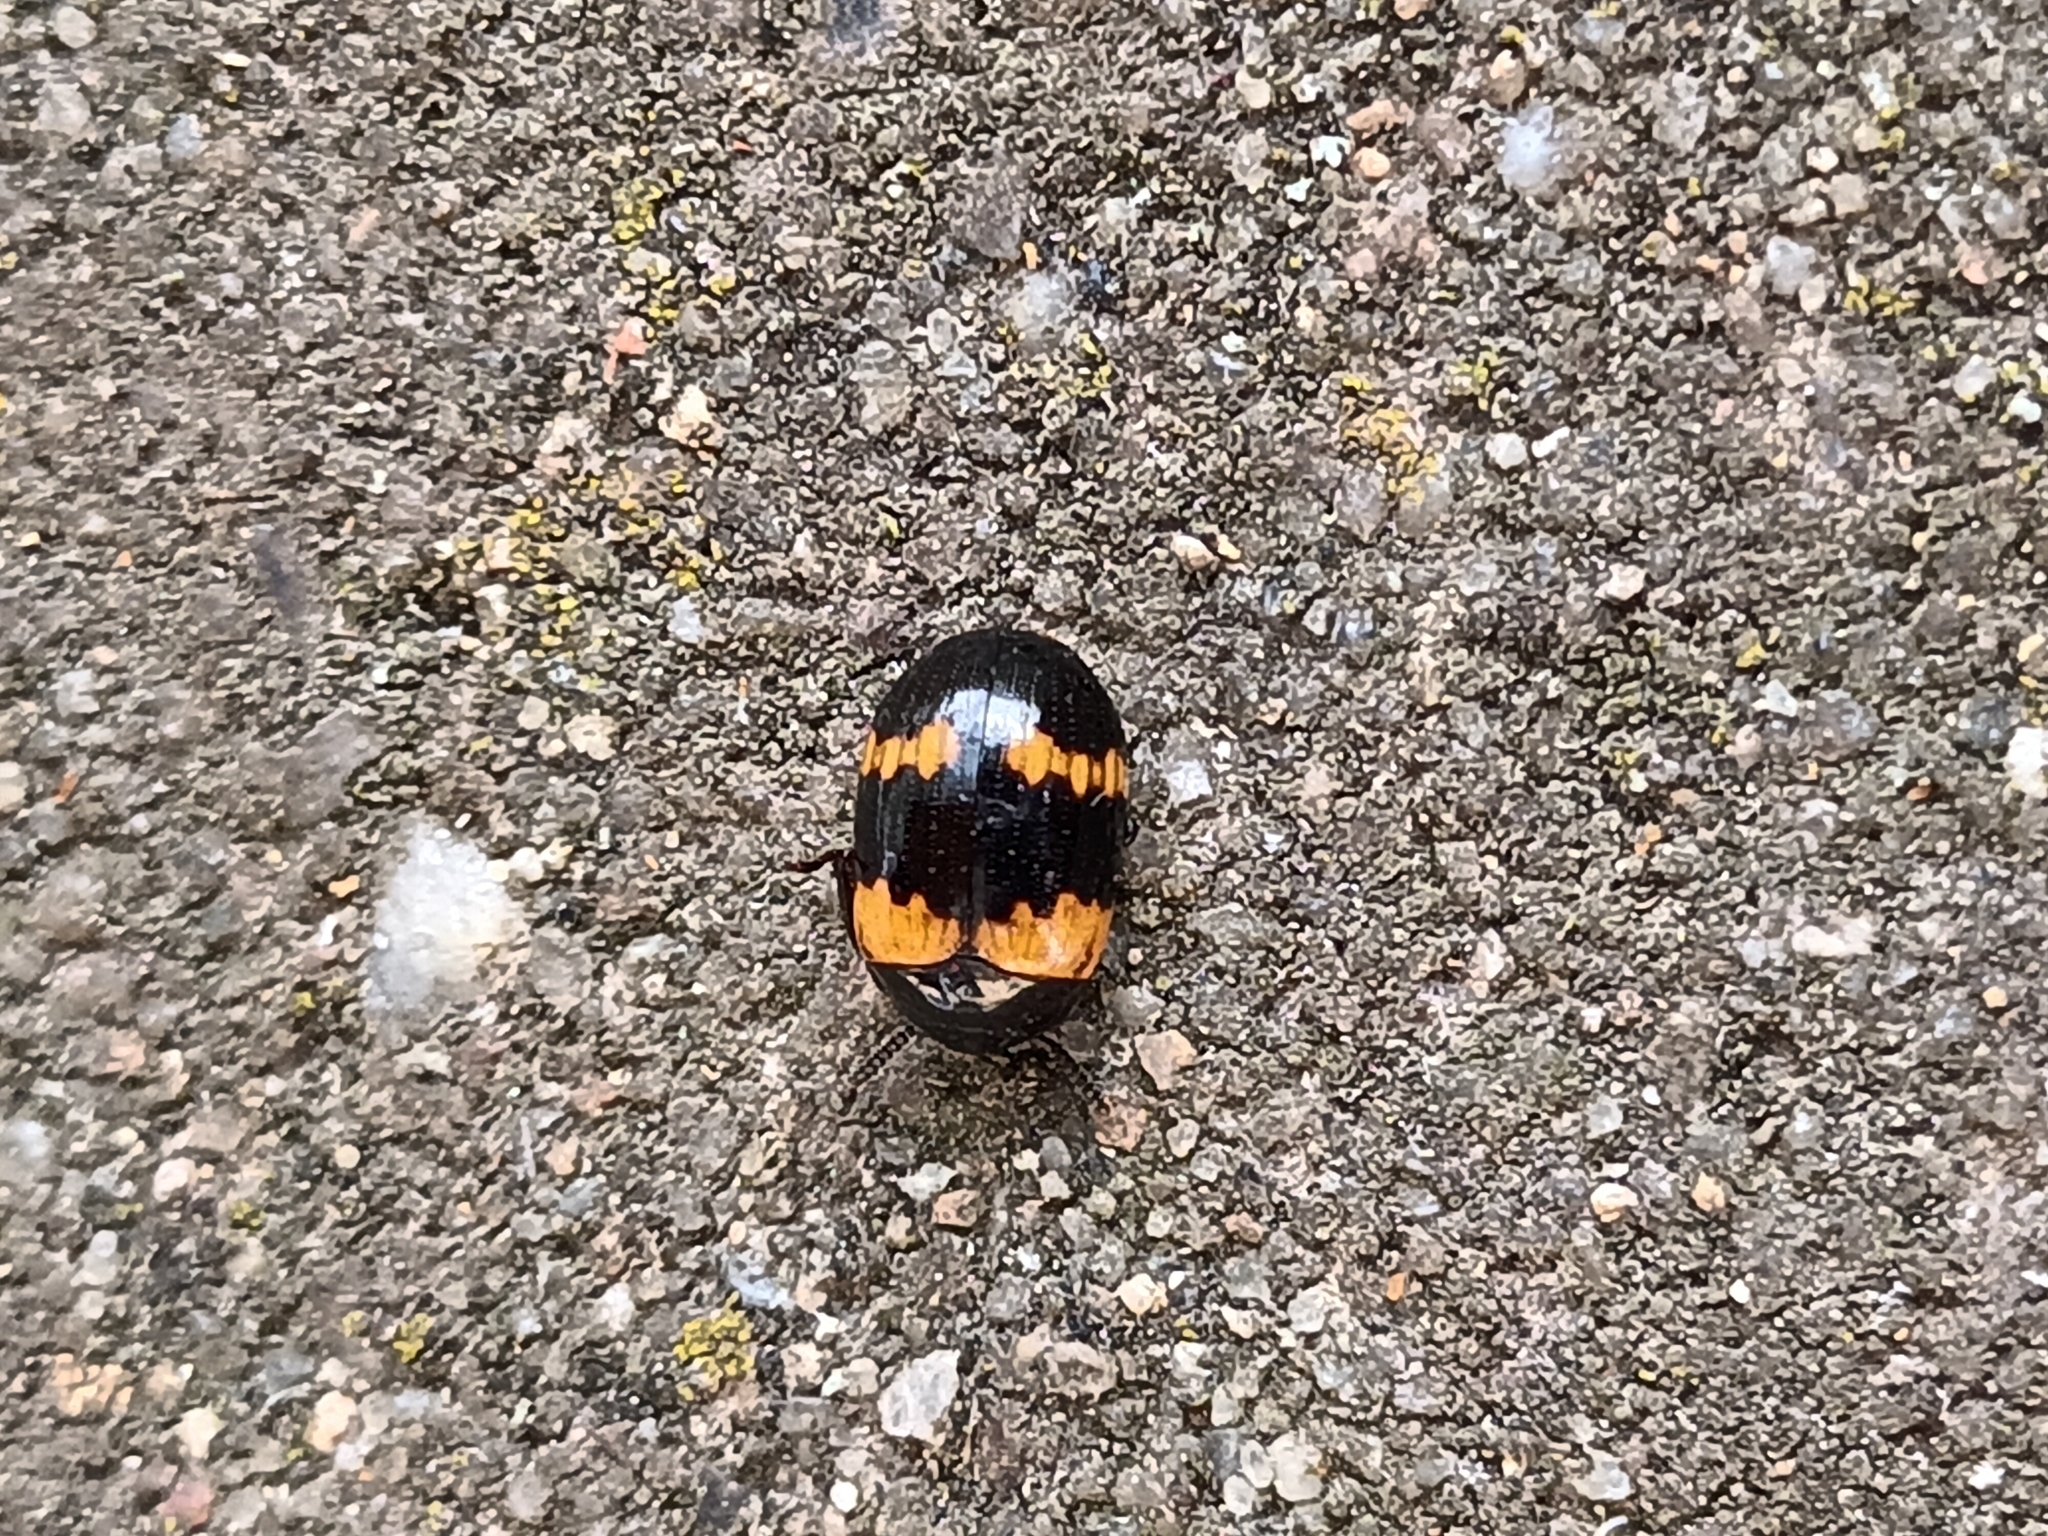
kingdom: Animalia
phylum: Arthropoda
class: Insecta
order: Coleoptera
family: Tenebrionidae
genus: Diaperis
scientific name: Diaperis boleti
